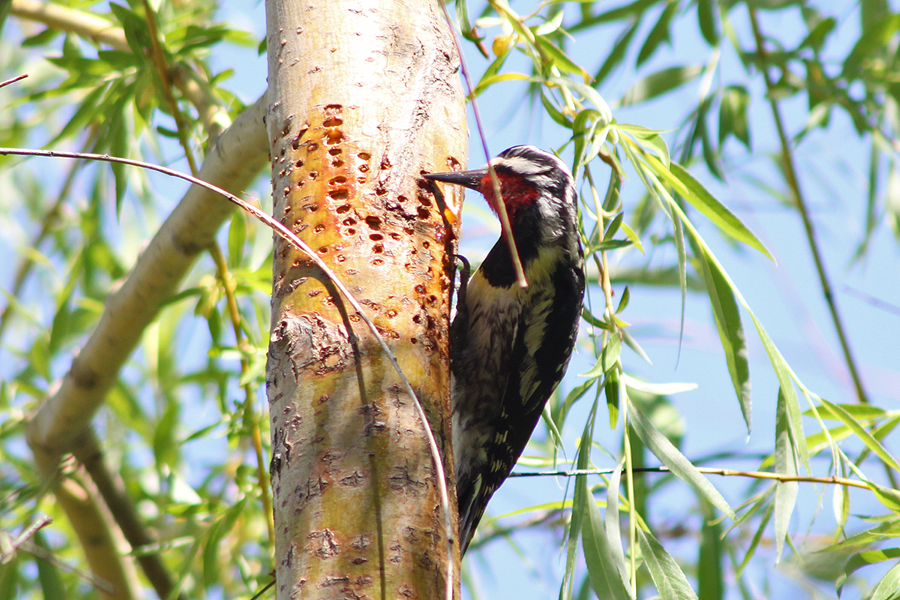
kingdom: Animalia
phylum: Chordata
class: Aves
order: Piciformes
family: Picidae
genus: Sphyrapicus
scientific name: Sphyrapicus varius
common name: Yellow-bellied sapsucker
